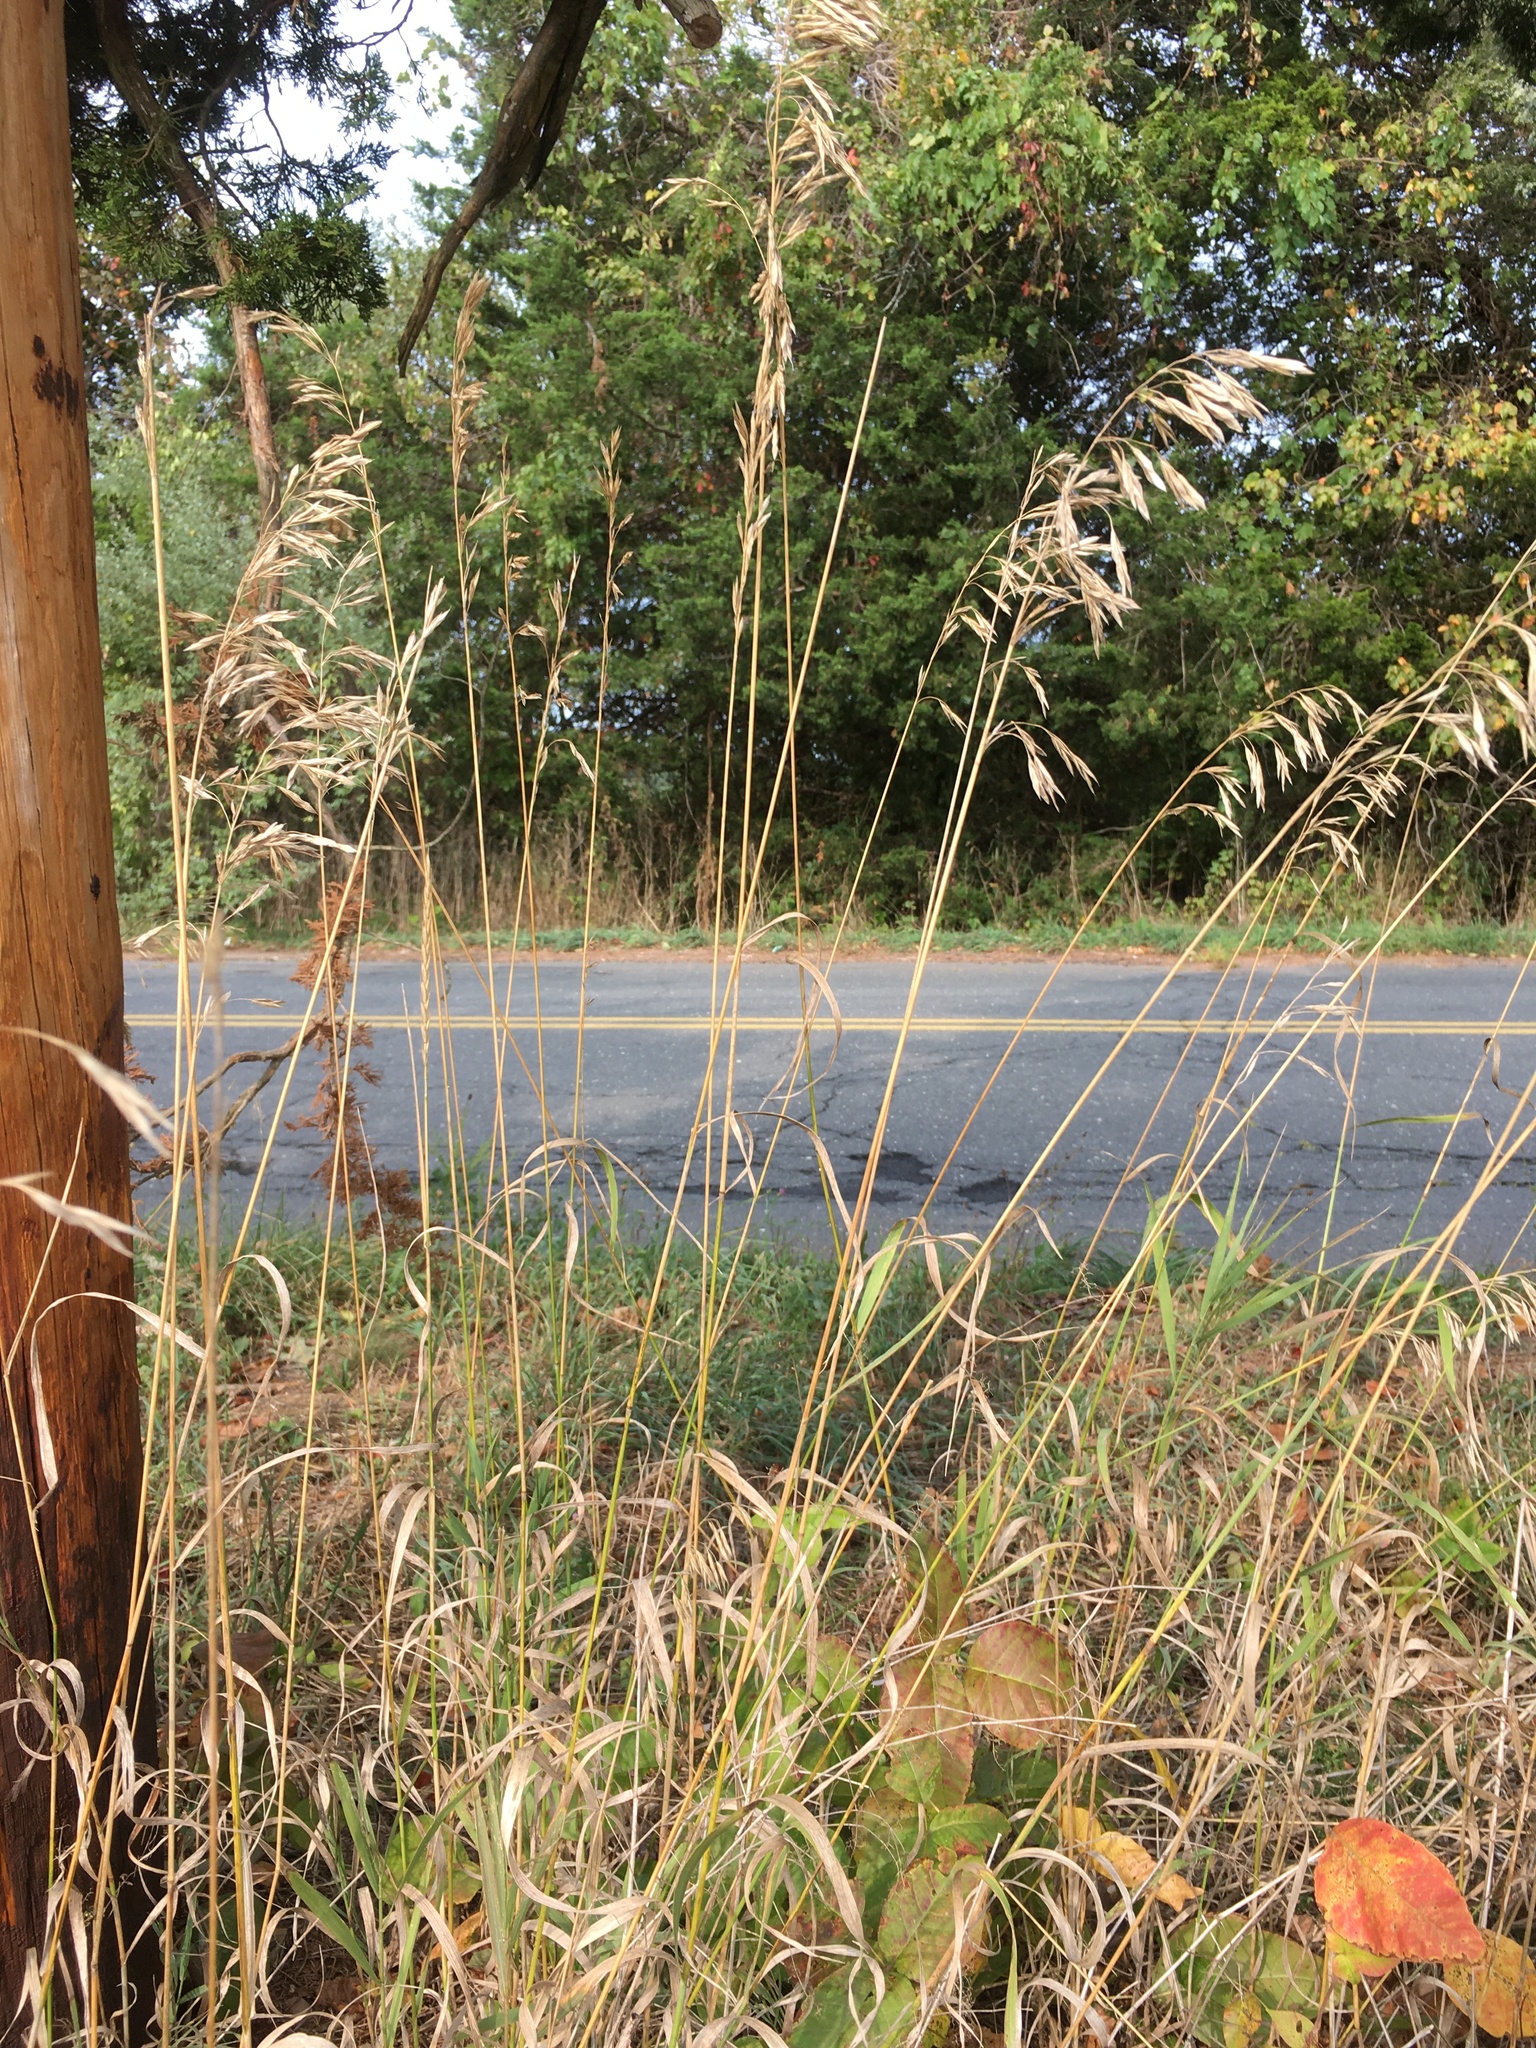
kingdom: Plantae
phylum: Tracheophyta
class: Liliopsida
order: Poales
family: Poaceae
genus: Bromus
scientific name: Bromus inermis
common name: Smooth brome
